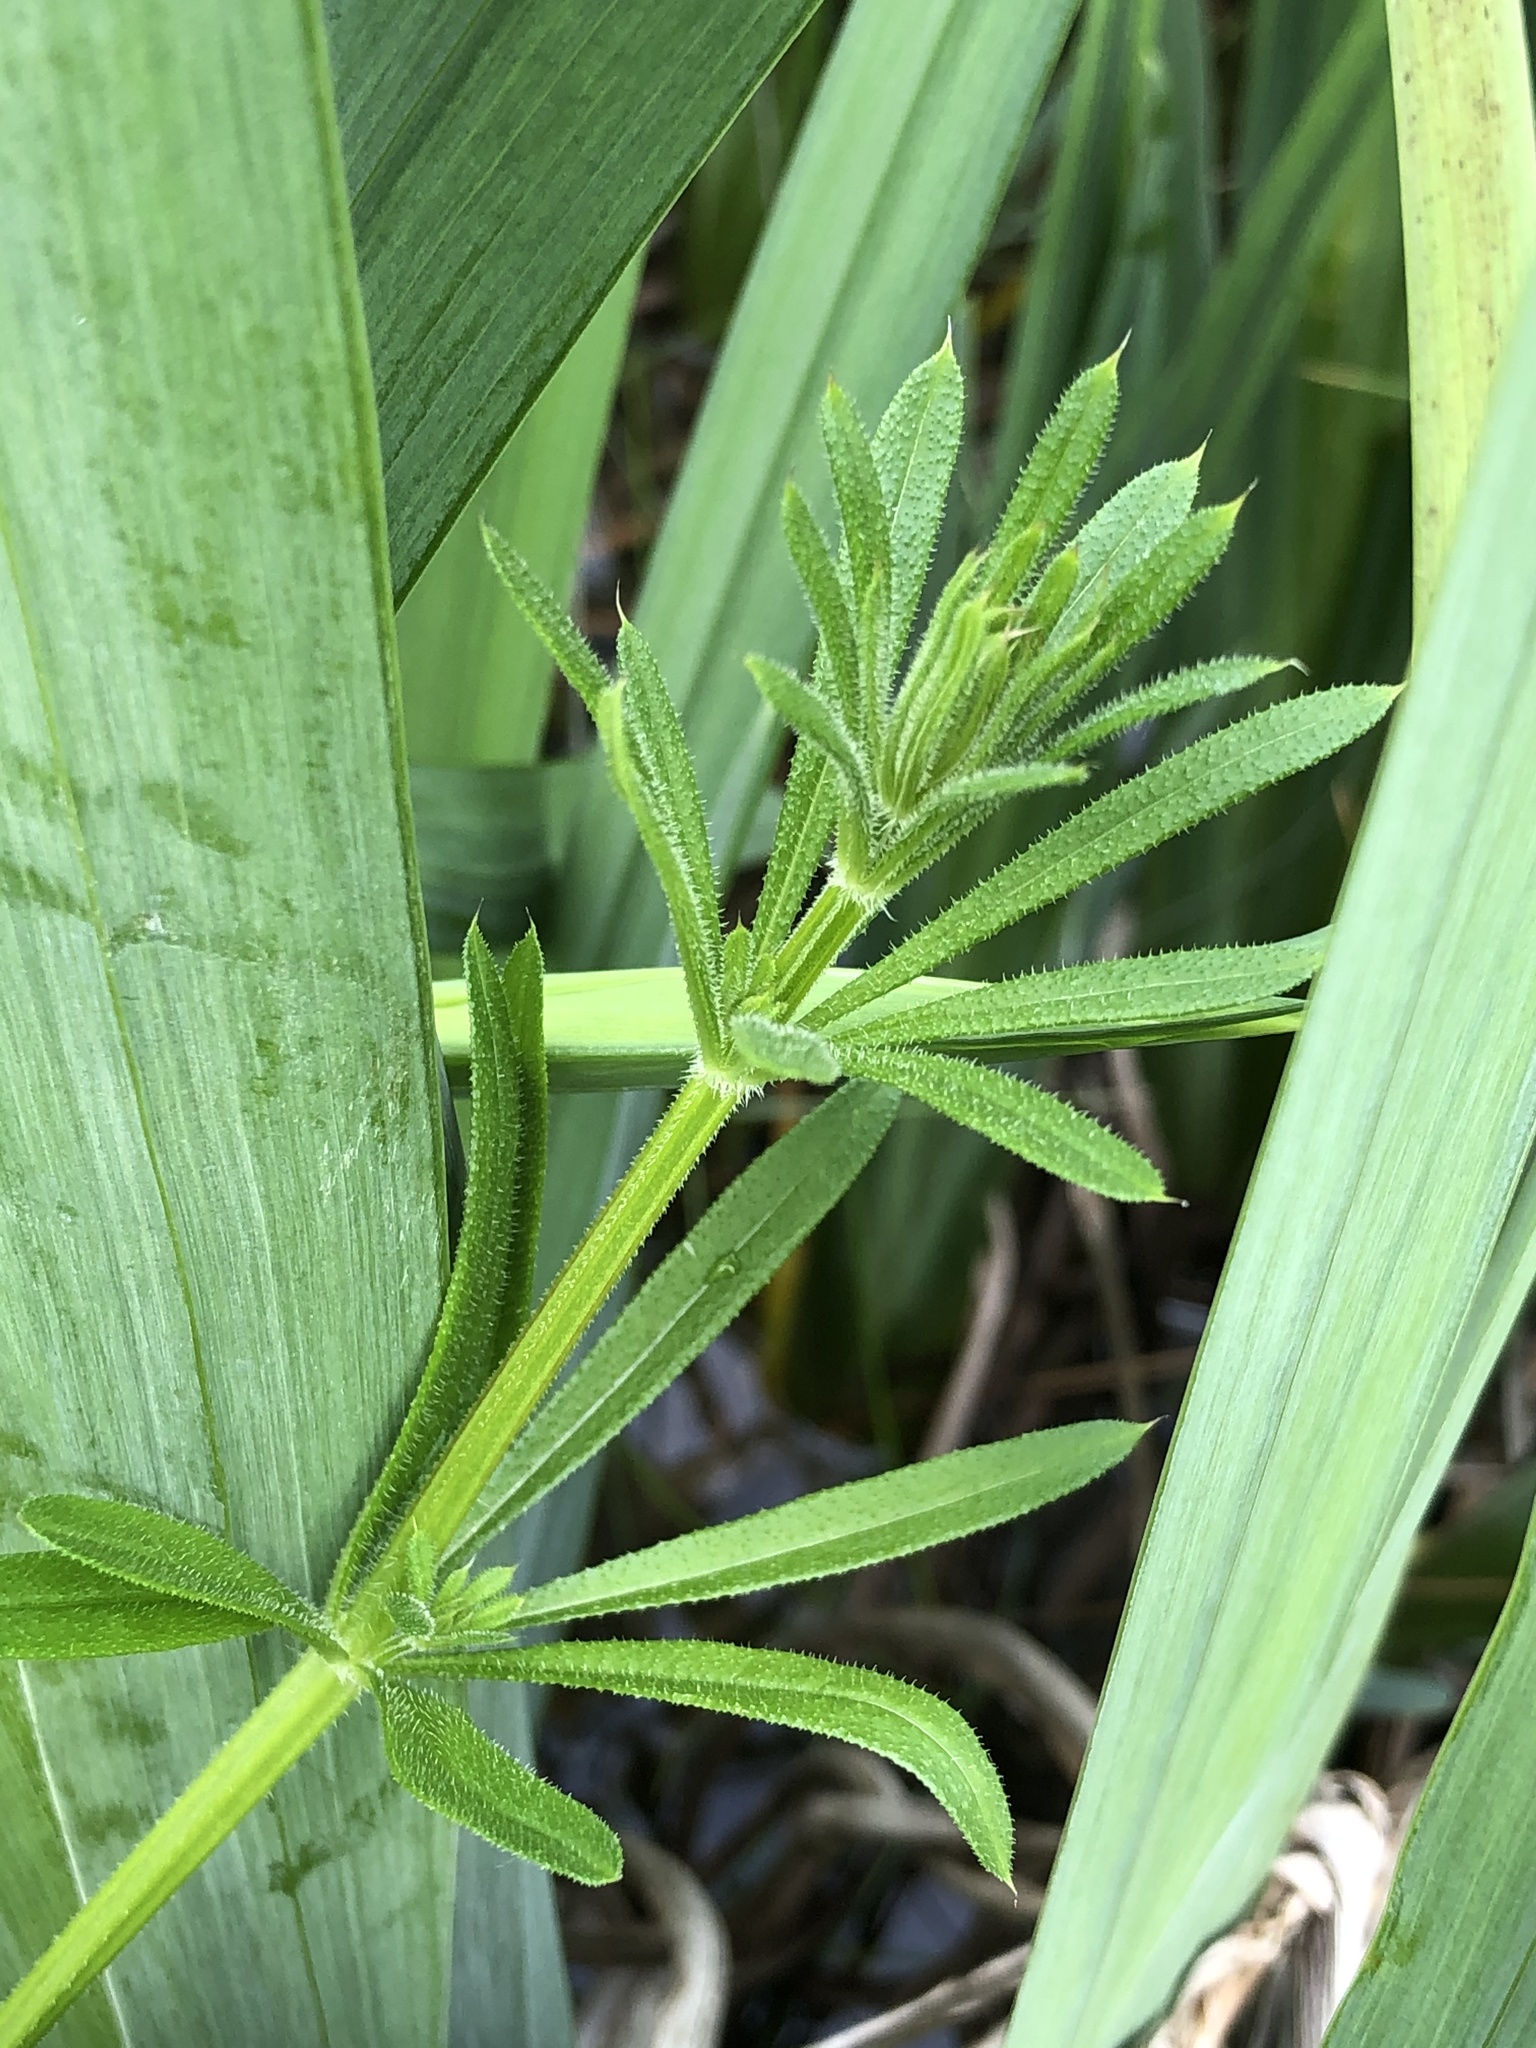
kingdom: Plantae
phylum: Tracheophyta
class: Magnoliopsida
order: Gentianales
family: Rubiaceae
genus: Galium
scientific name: Galium aparine
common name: Cleavers
